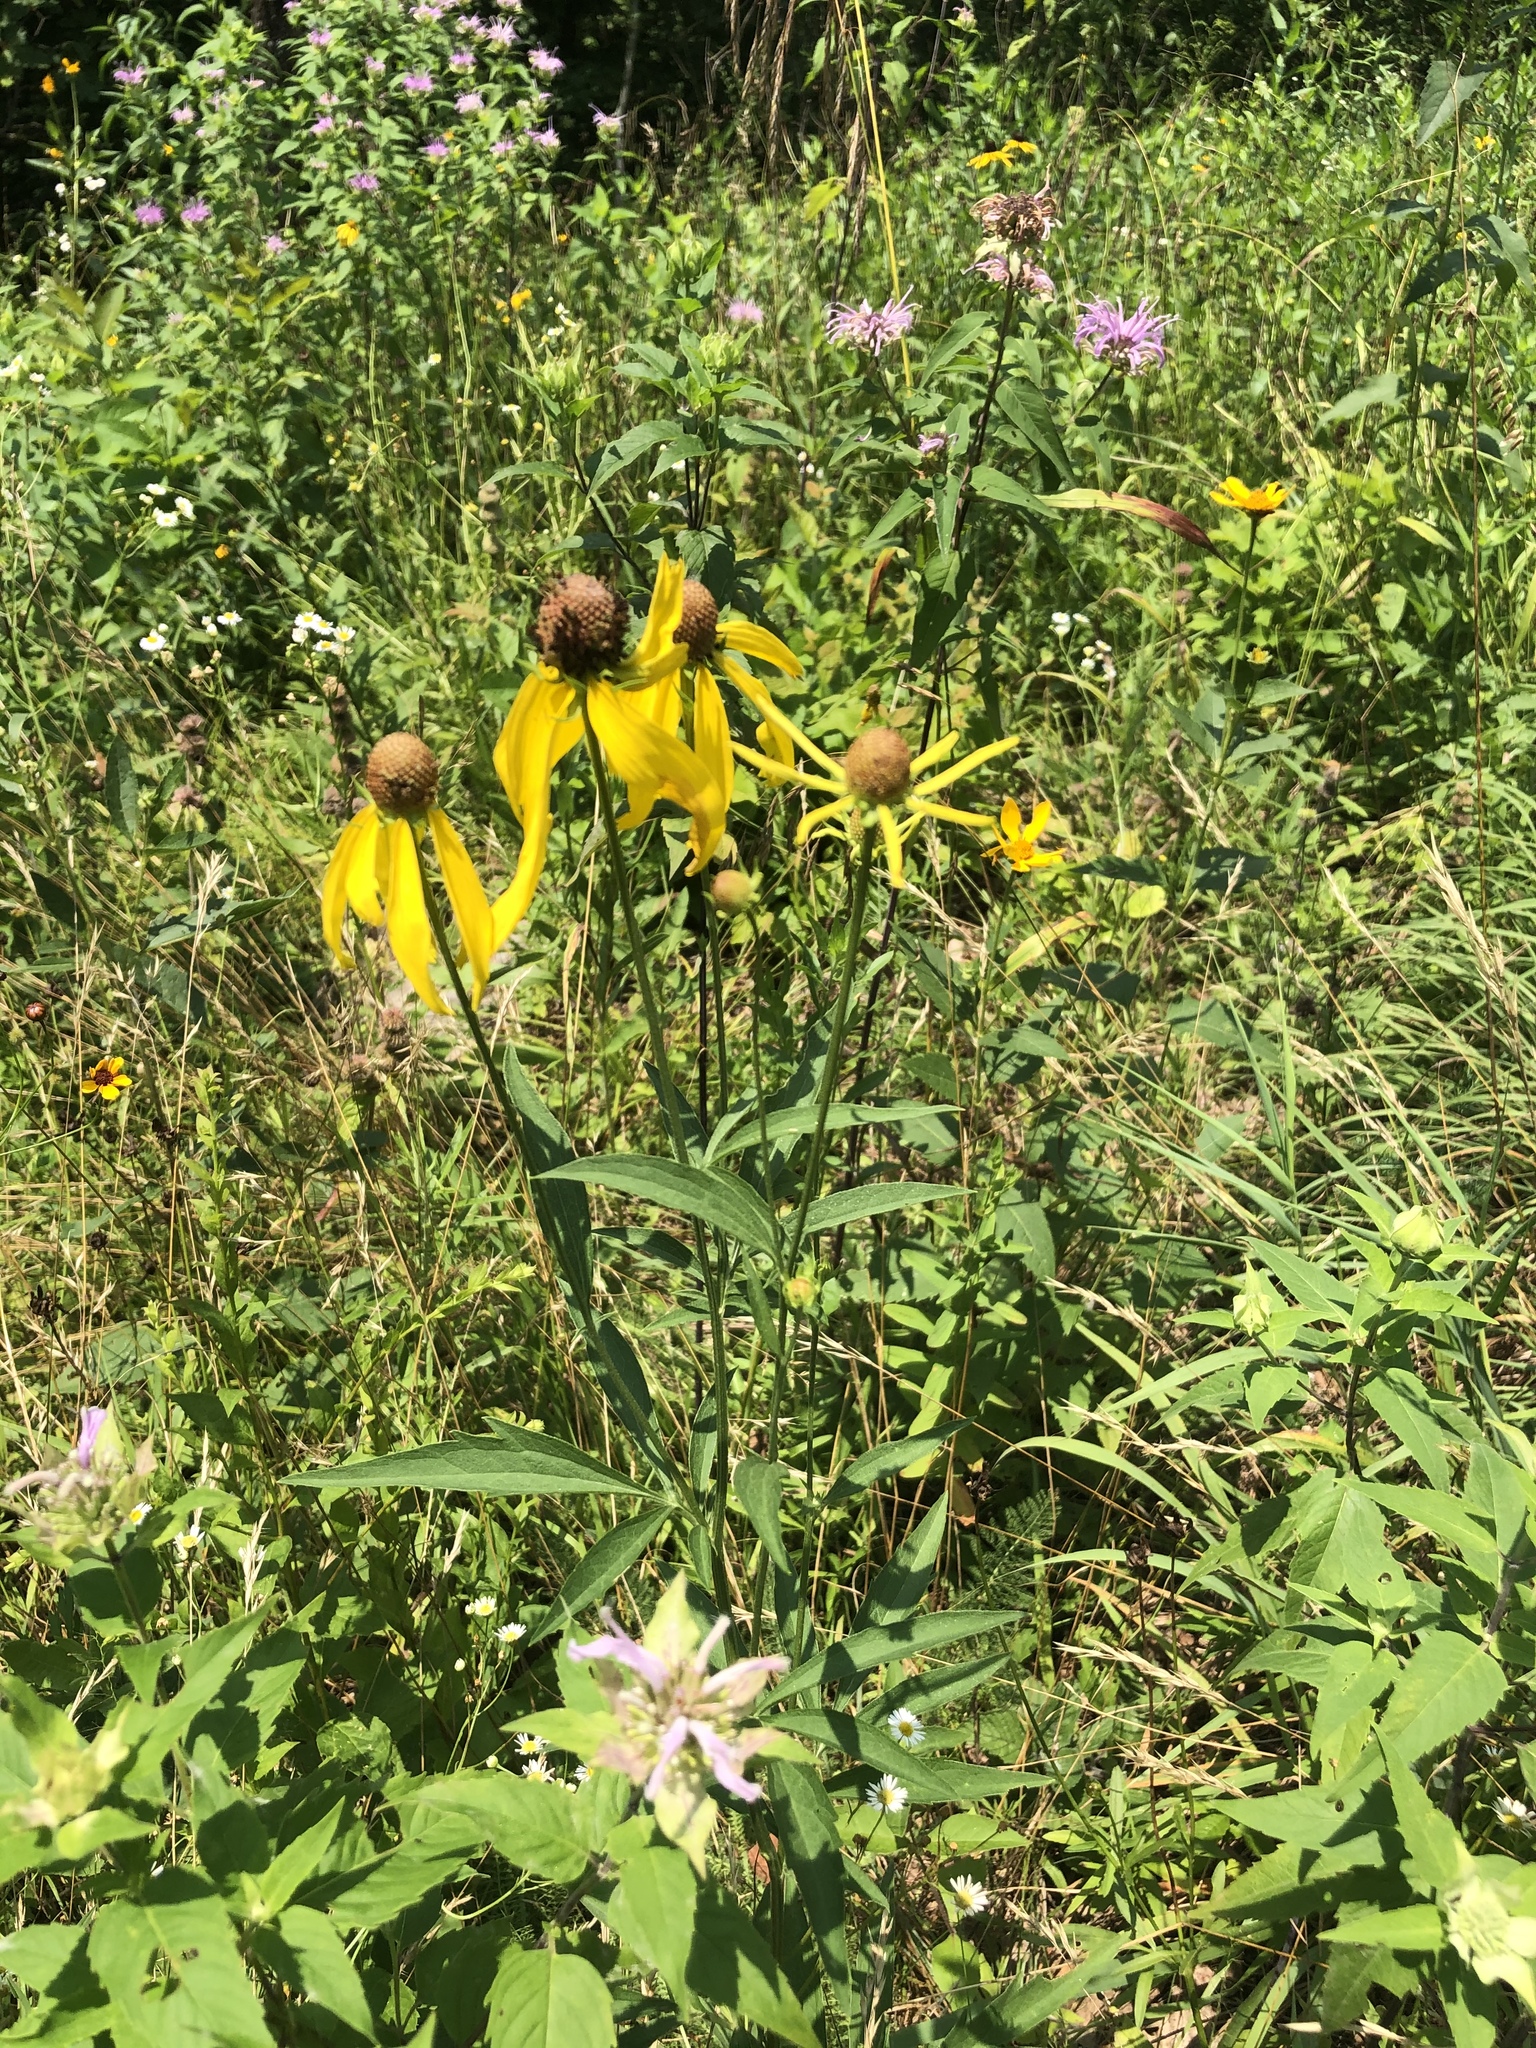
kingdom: Plantae
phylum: Tracheophyta
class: Magnoliopsida
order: Asterales
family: Asteraceae
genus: Ratibida
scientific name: Ratibida pinnata
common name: Drooping prairie-coneflower
